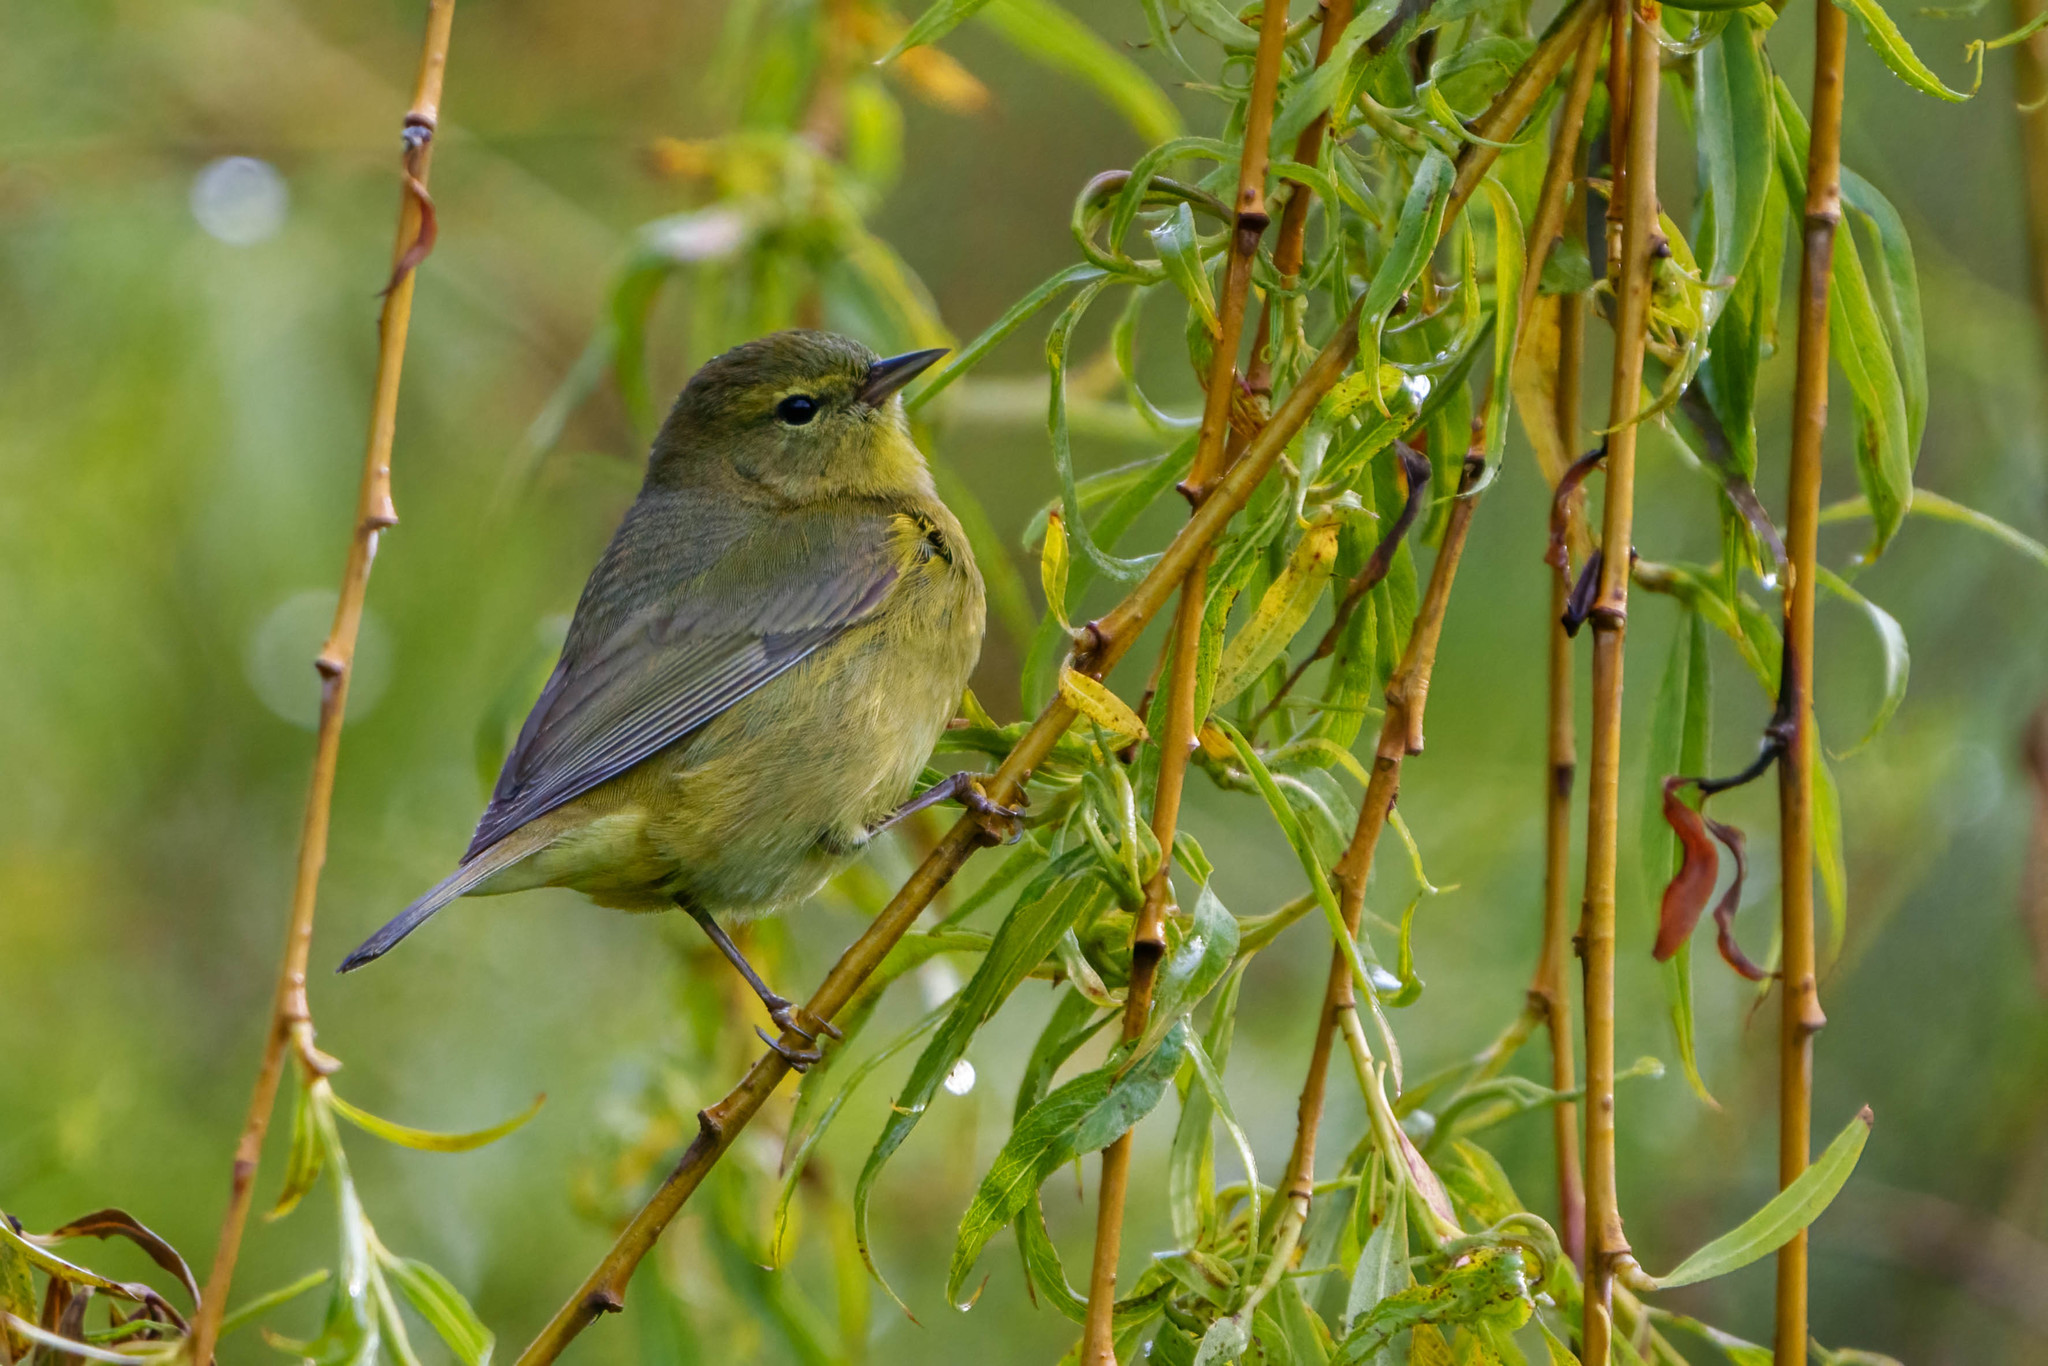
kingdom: Animalia
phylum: Chordata
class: Aves
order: Passeriformes
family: Parulidae
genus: Leiothlypis
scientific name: Leiothlypis celata
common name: Orange-crowned warbler
